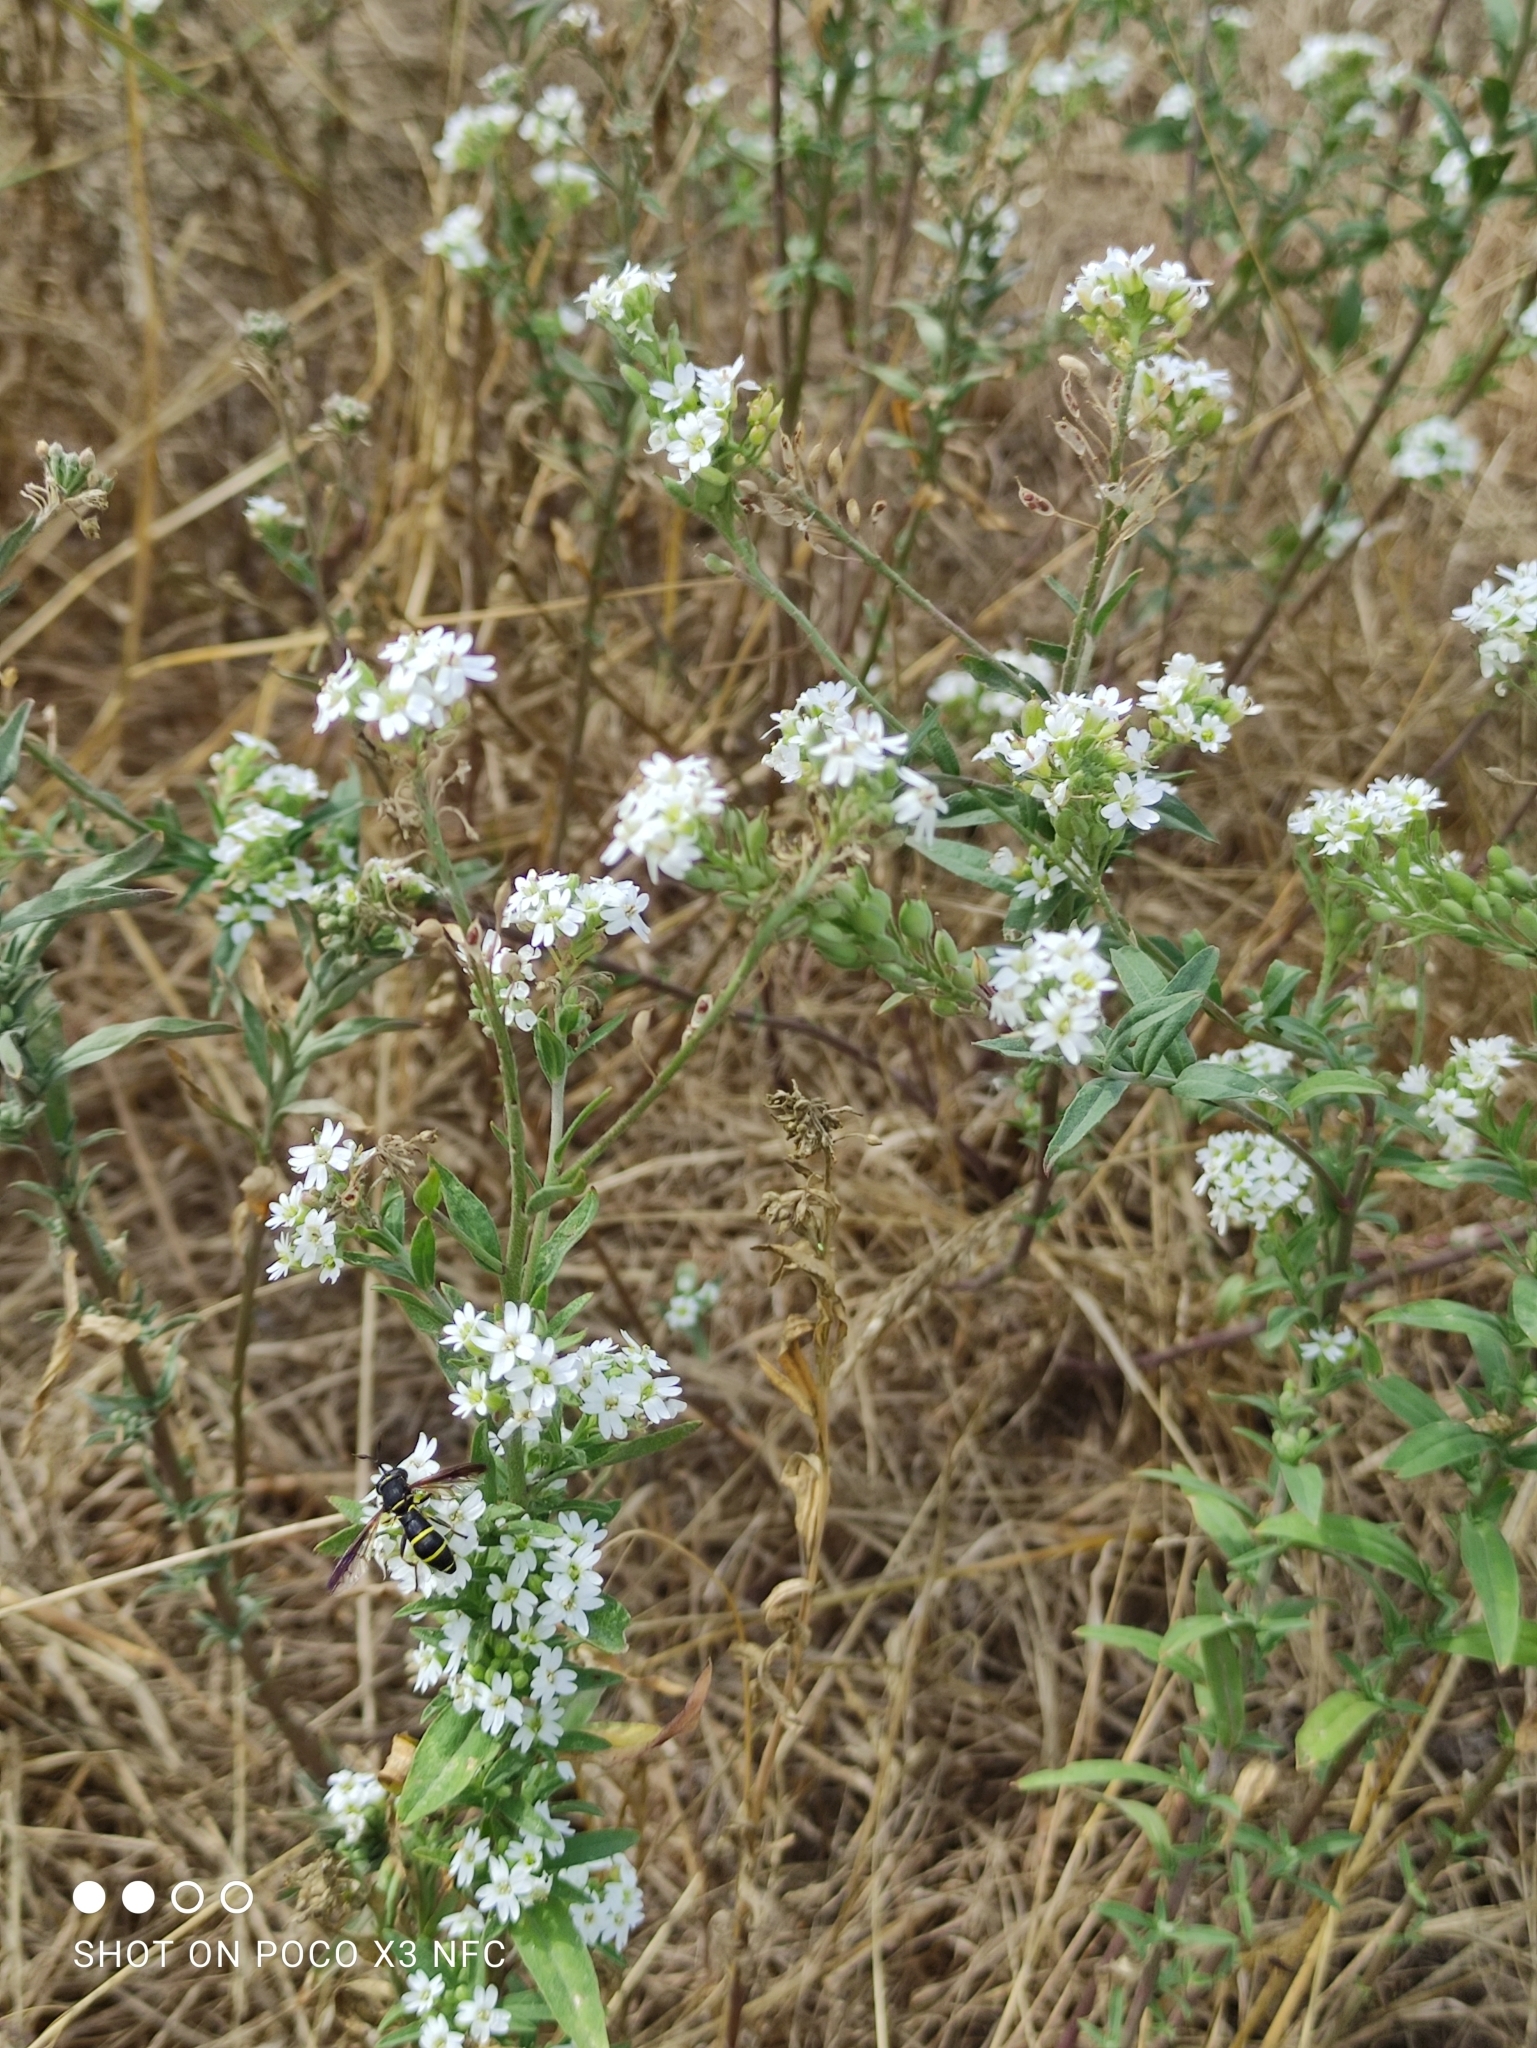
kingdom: Plantae
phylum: Tracheophyta
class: Magnoliopsida
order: Brassicales
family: Brassicaceae
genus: Berteroa
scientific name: Berteroa incana
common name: Hoary alison
